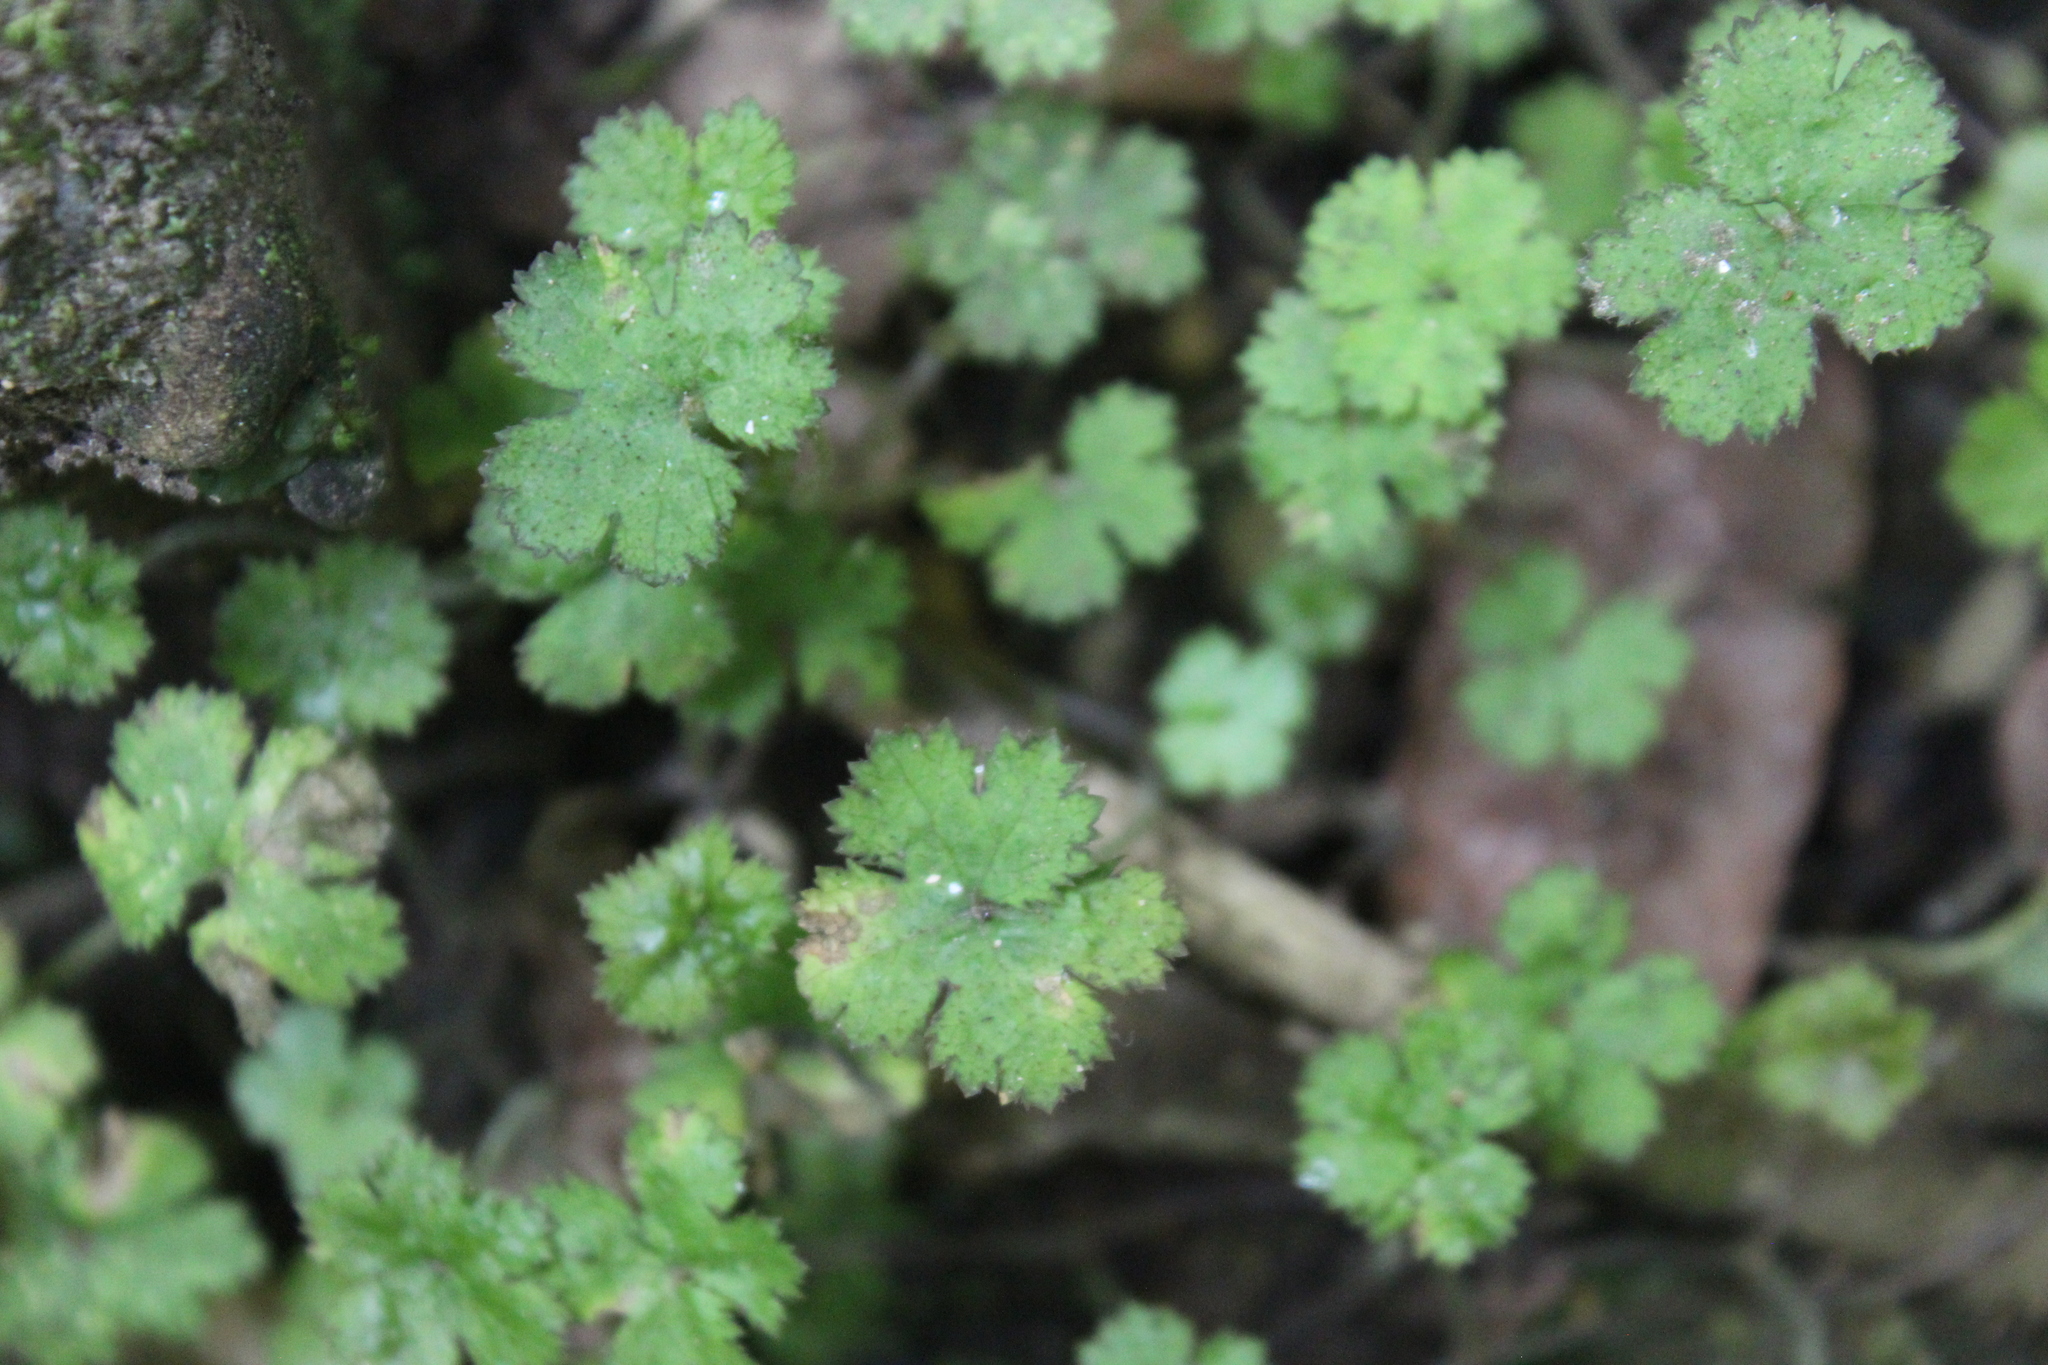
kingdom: Plantae
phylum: Tracheophyta
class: Magnoliopsida
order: Apiales
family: Araliaceae
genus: Hydrocotyle
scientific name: Hydrocotyle elongata
